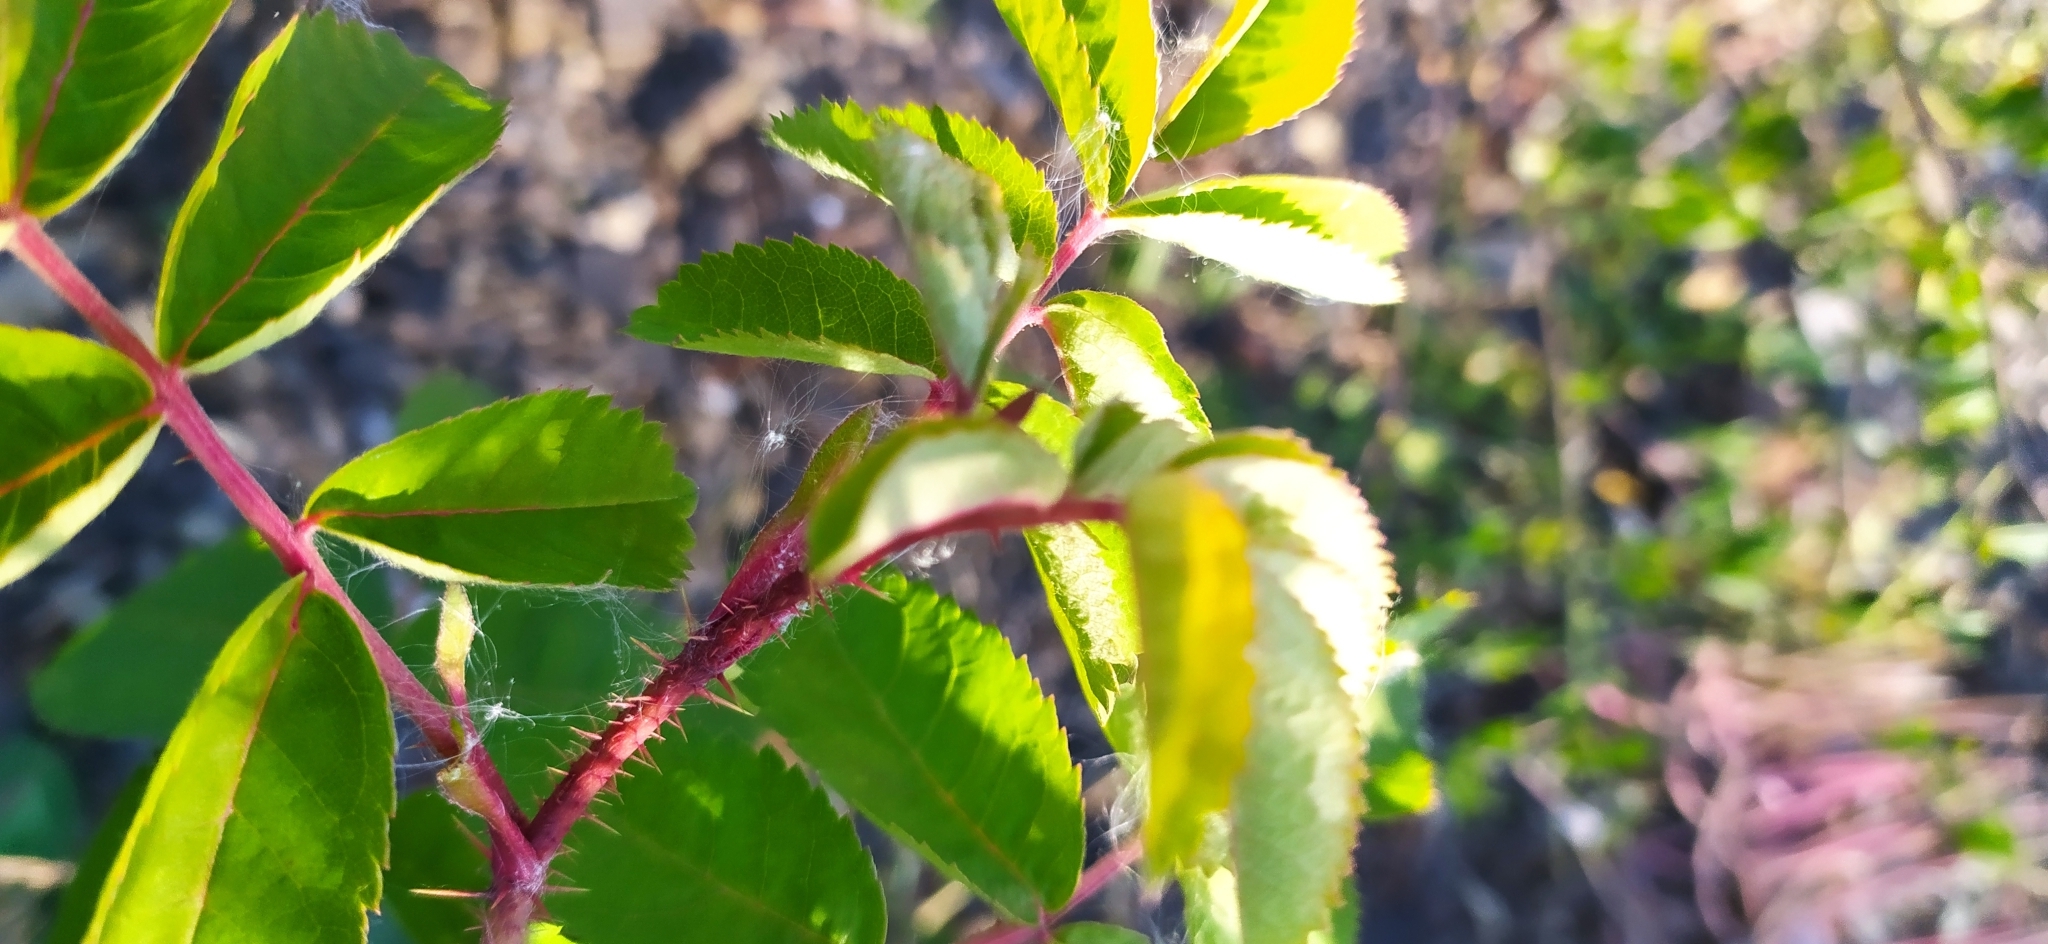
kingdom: Plantae
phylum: Tracheophyta
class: Magnoliopsida
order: Rosales
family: Rosaceae
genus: Rosa
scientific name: Rosa acicularis
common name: Prickly rose
